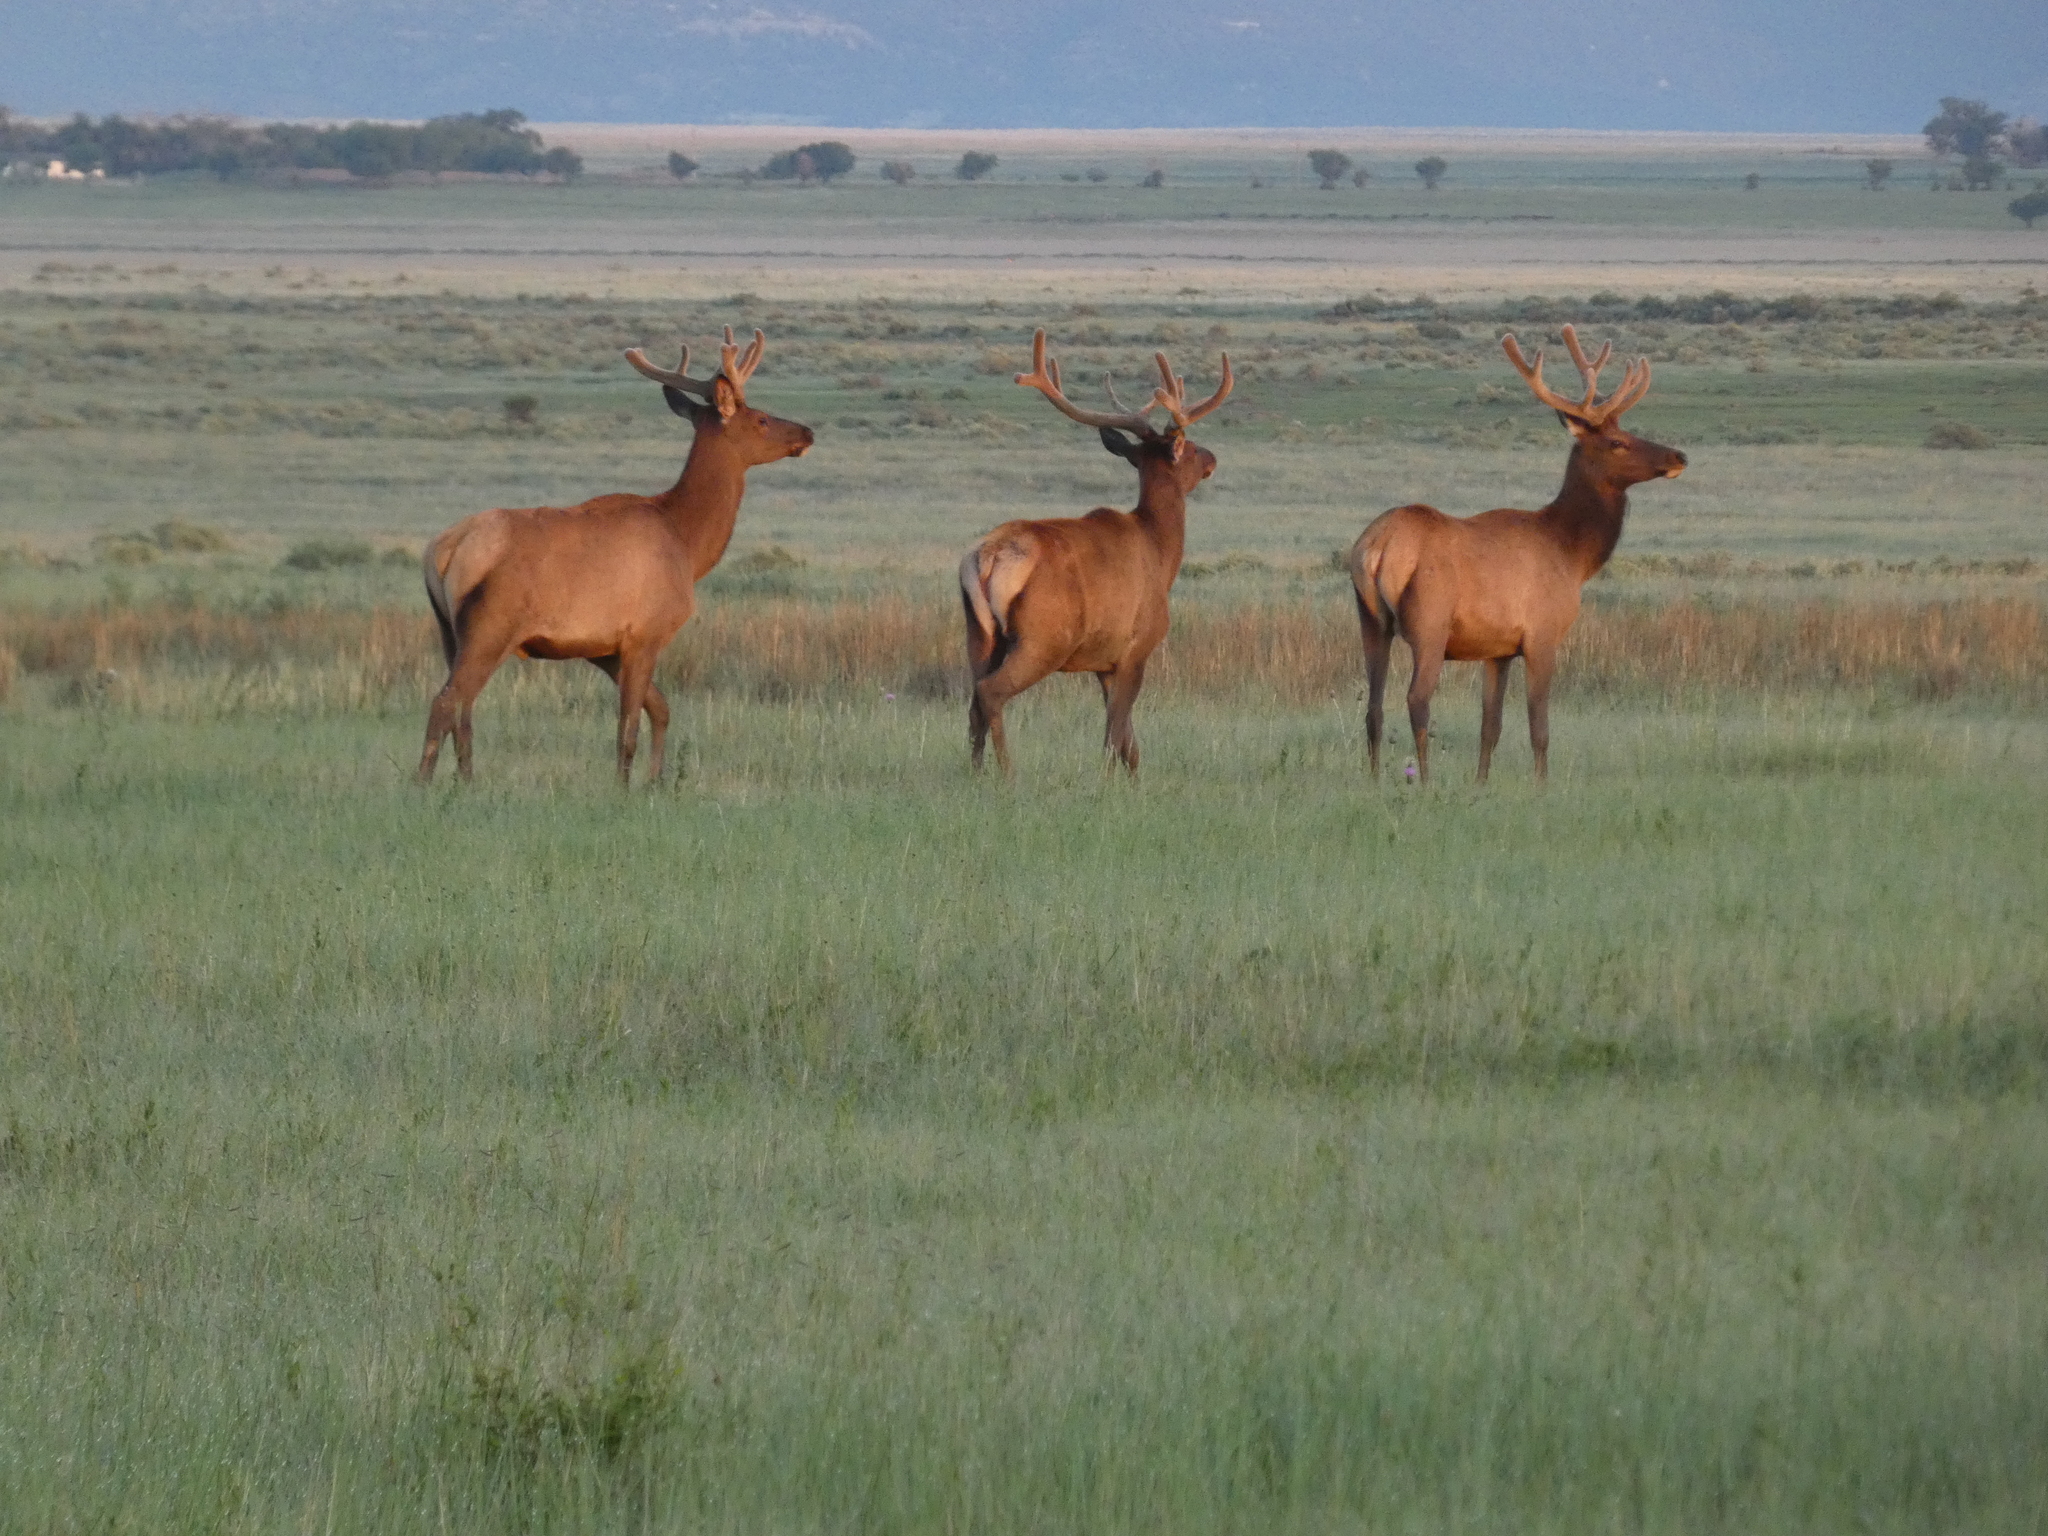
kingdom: Animalia
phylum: Chordata
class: Mammalia
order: Artiodactyla
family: Cervidae
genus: Cervus
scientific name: Cervus elaphus
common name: Red deer
